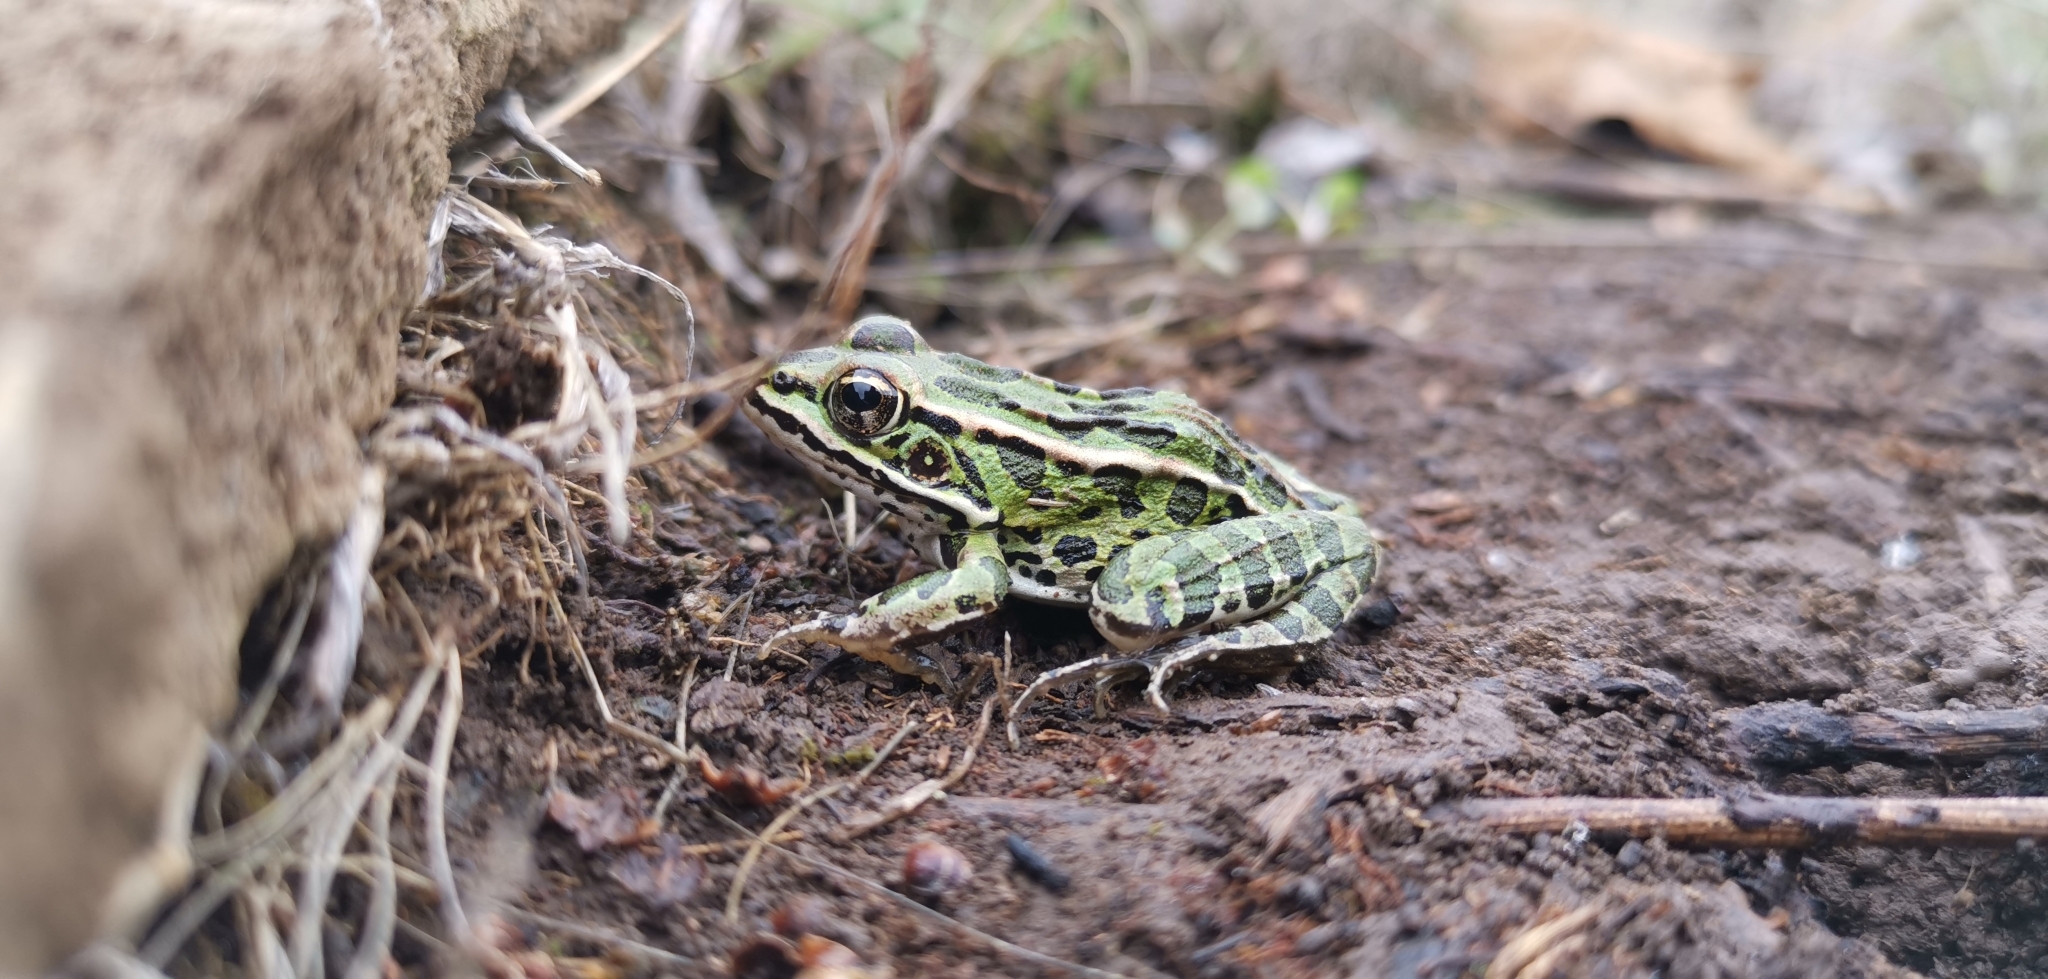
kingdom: Animalia
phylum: Chordata
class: Amphibia
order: Anura
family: Ranidae
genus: Lithobates
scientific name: Lithobates pipiens
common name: Northern leopard frog
